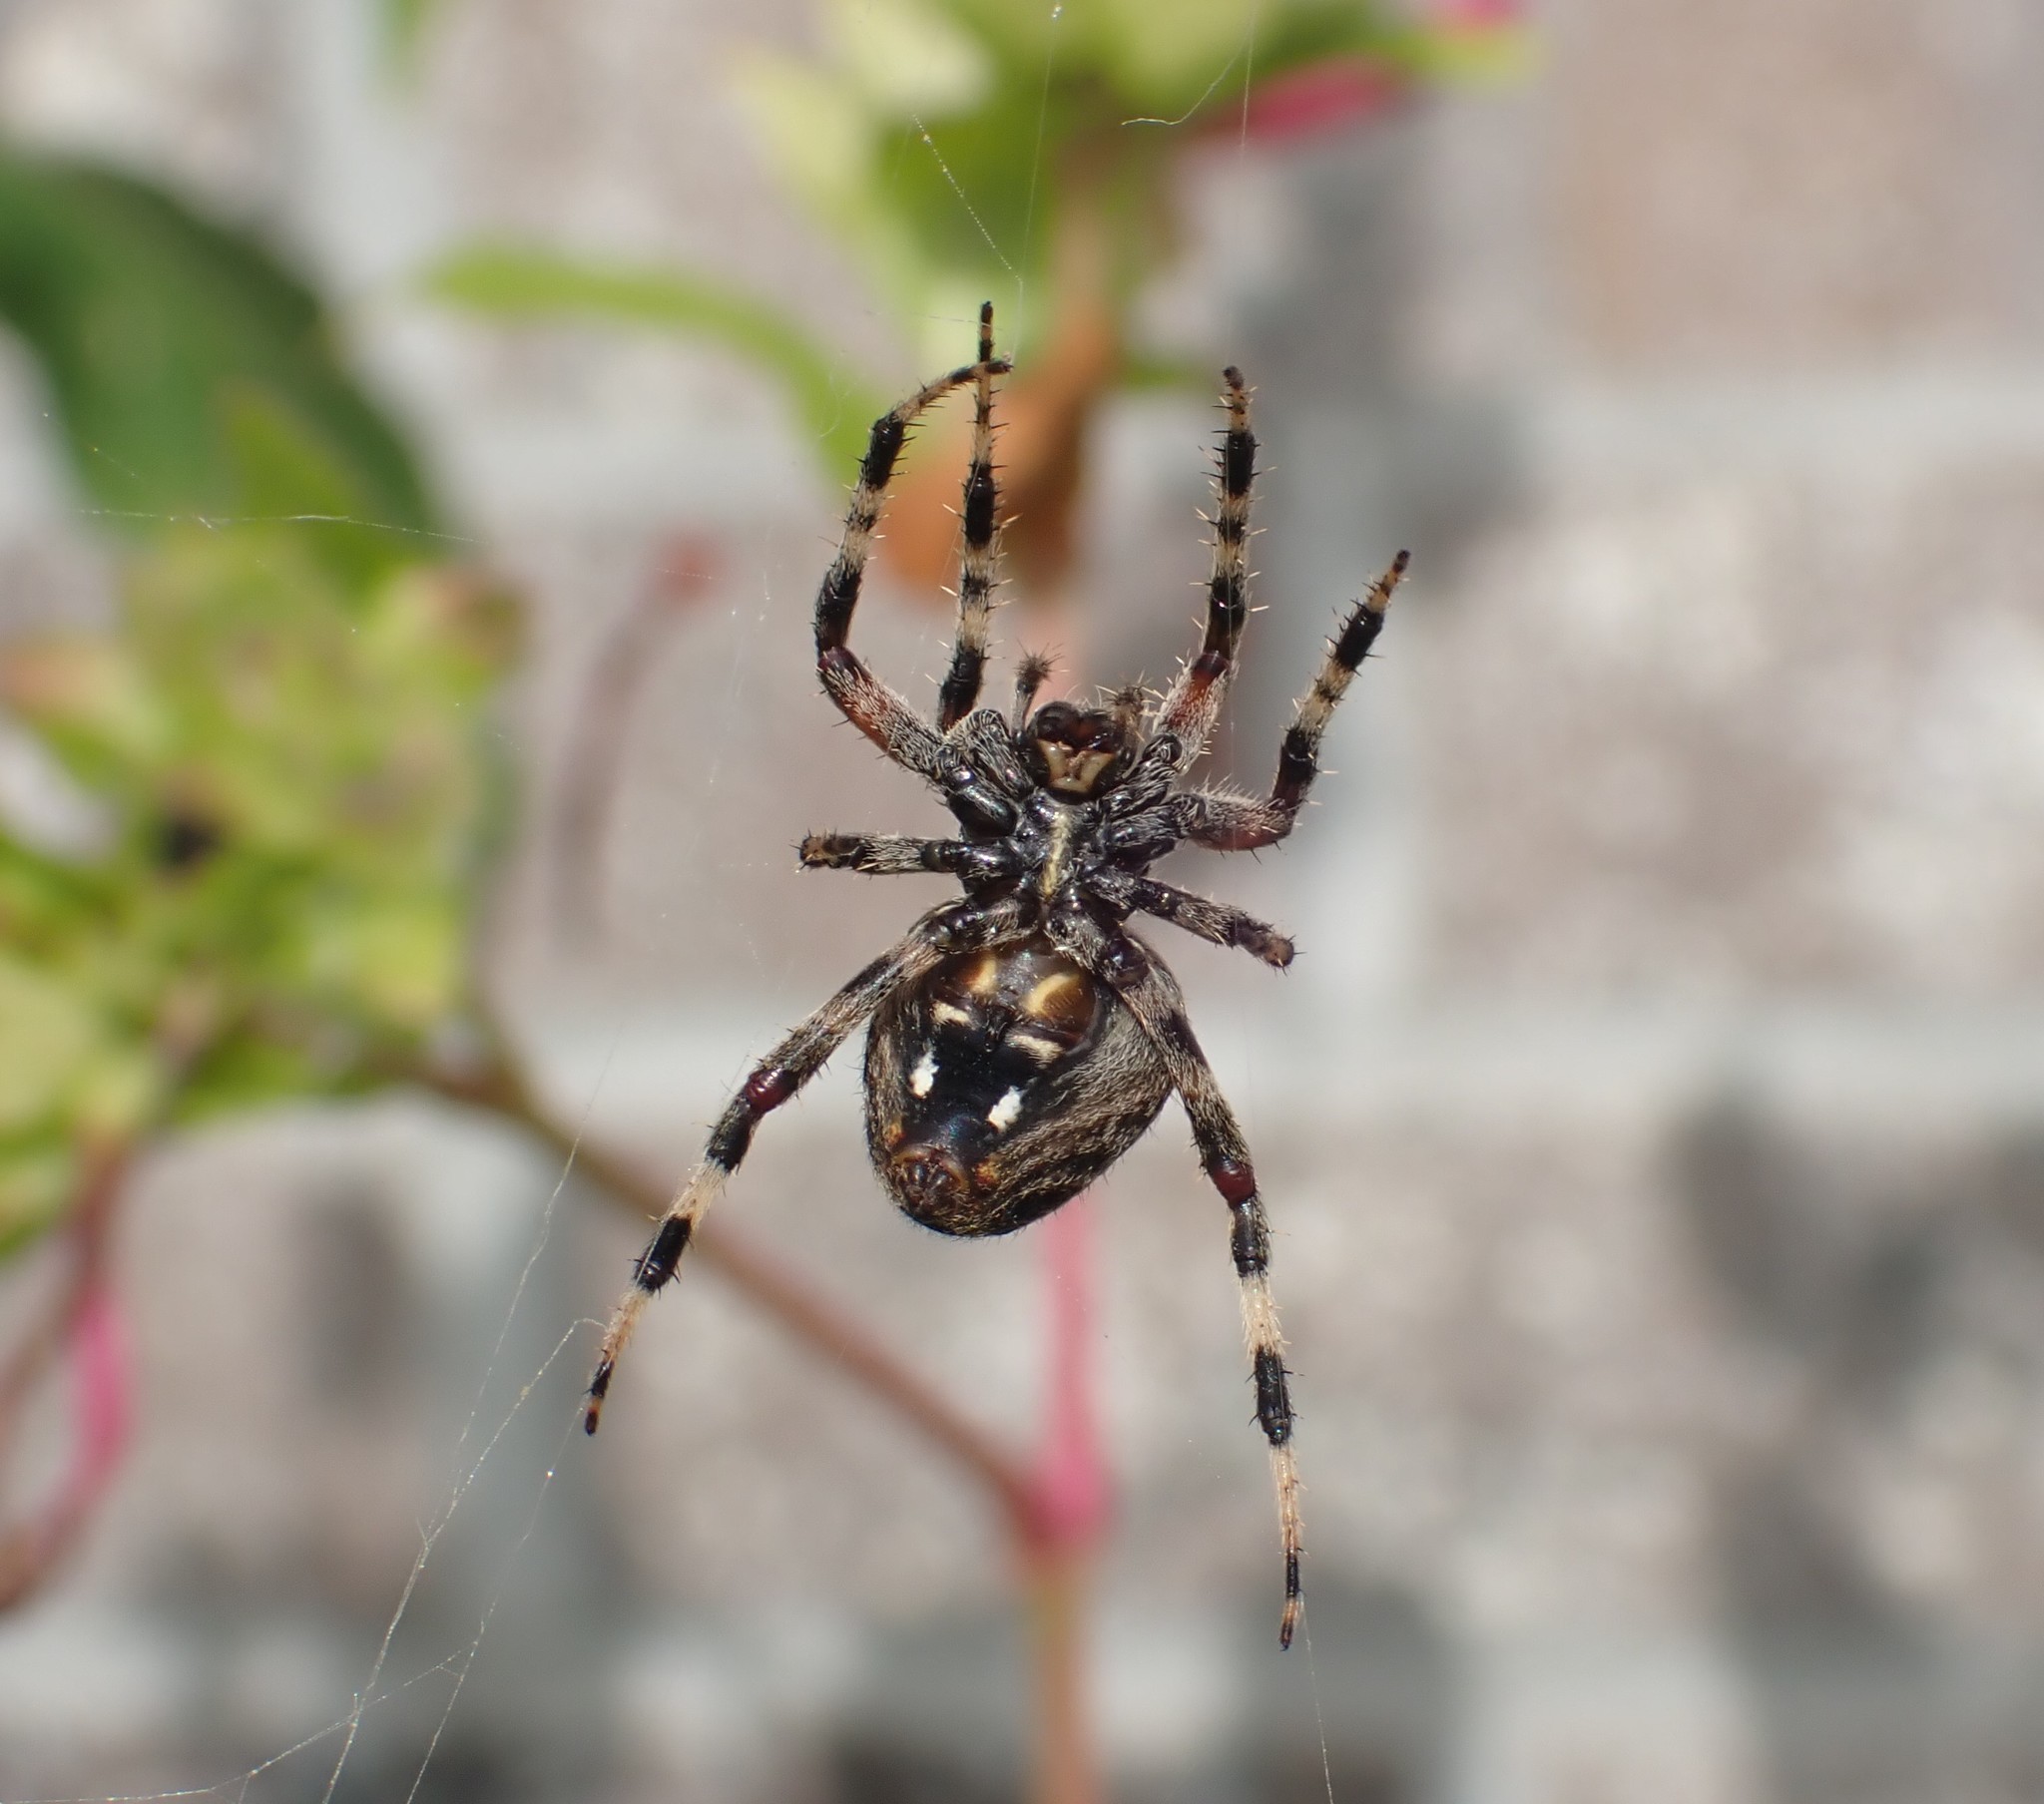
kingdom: Animalia
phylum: Arthropoda
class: Arachnida
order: Araneae
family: Araneidae
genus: Neoscona
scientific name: Neoscona crucifera
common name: Spotted orbweaver
